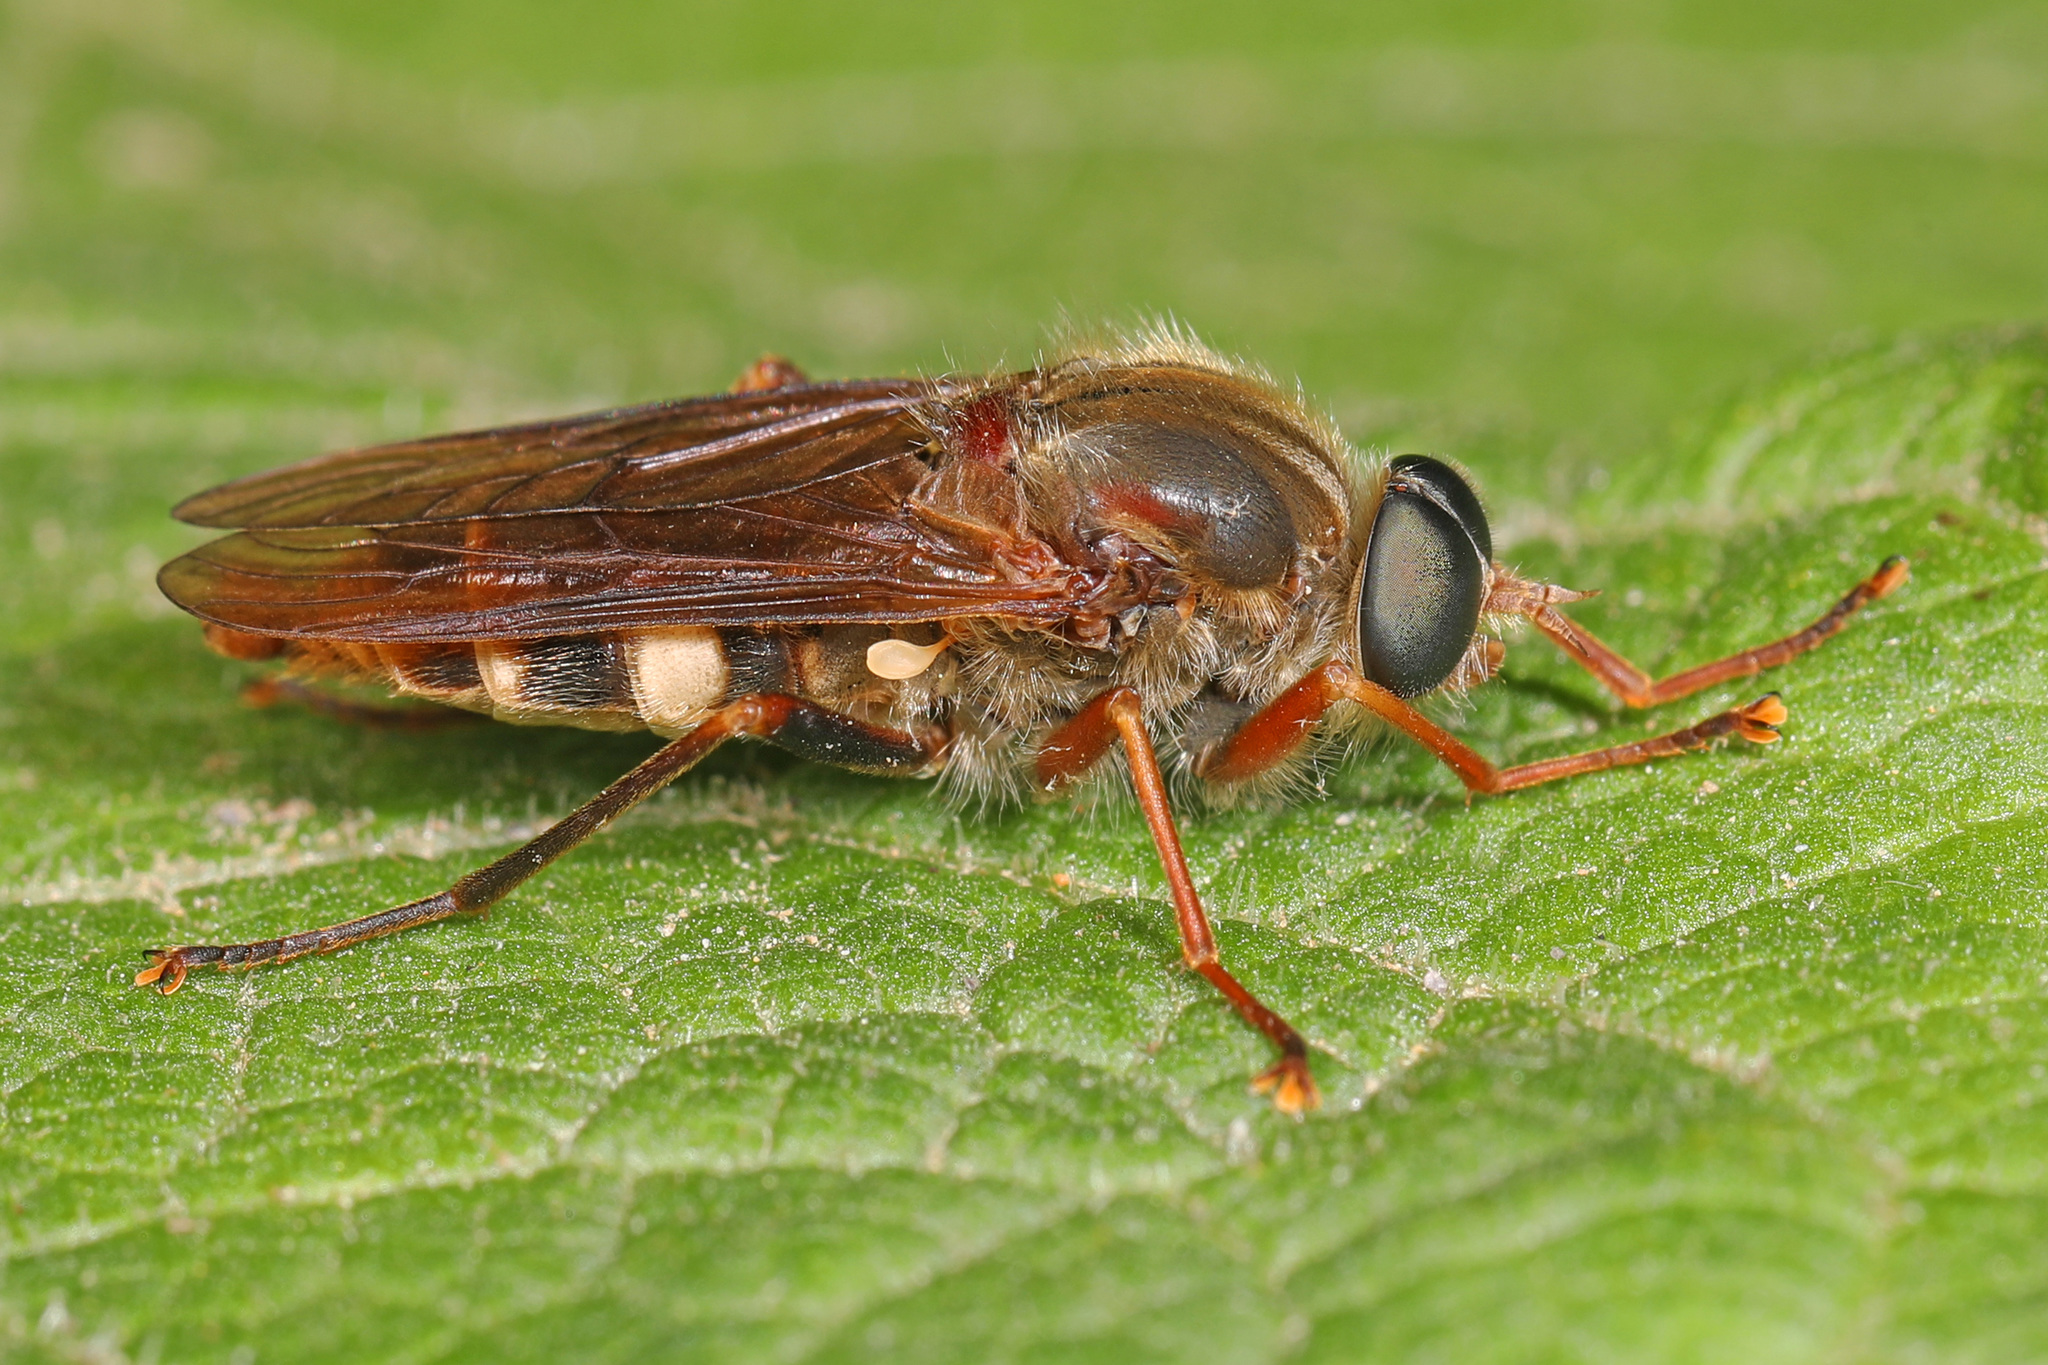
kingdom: Animalia
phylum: Arthropoda
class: Insecta
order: Diptera
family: Xylophagidae
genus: Coenomyia
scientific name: Coenomyia ferruginea
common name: Stink fly
